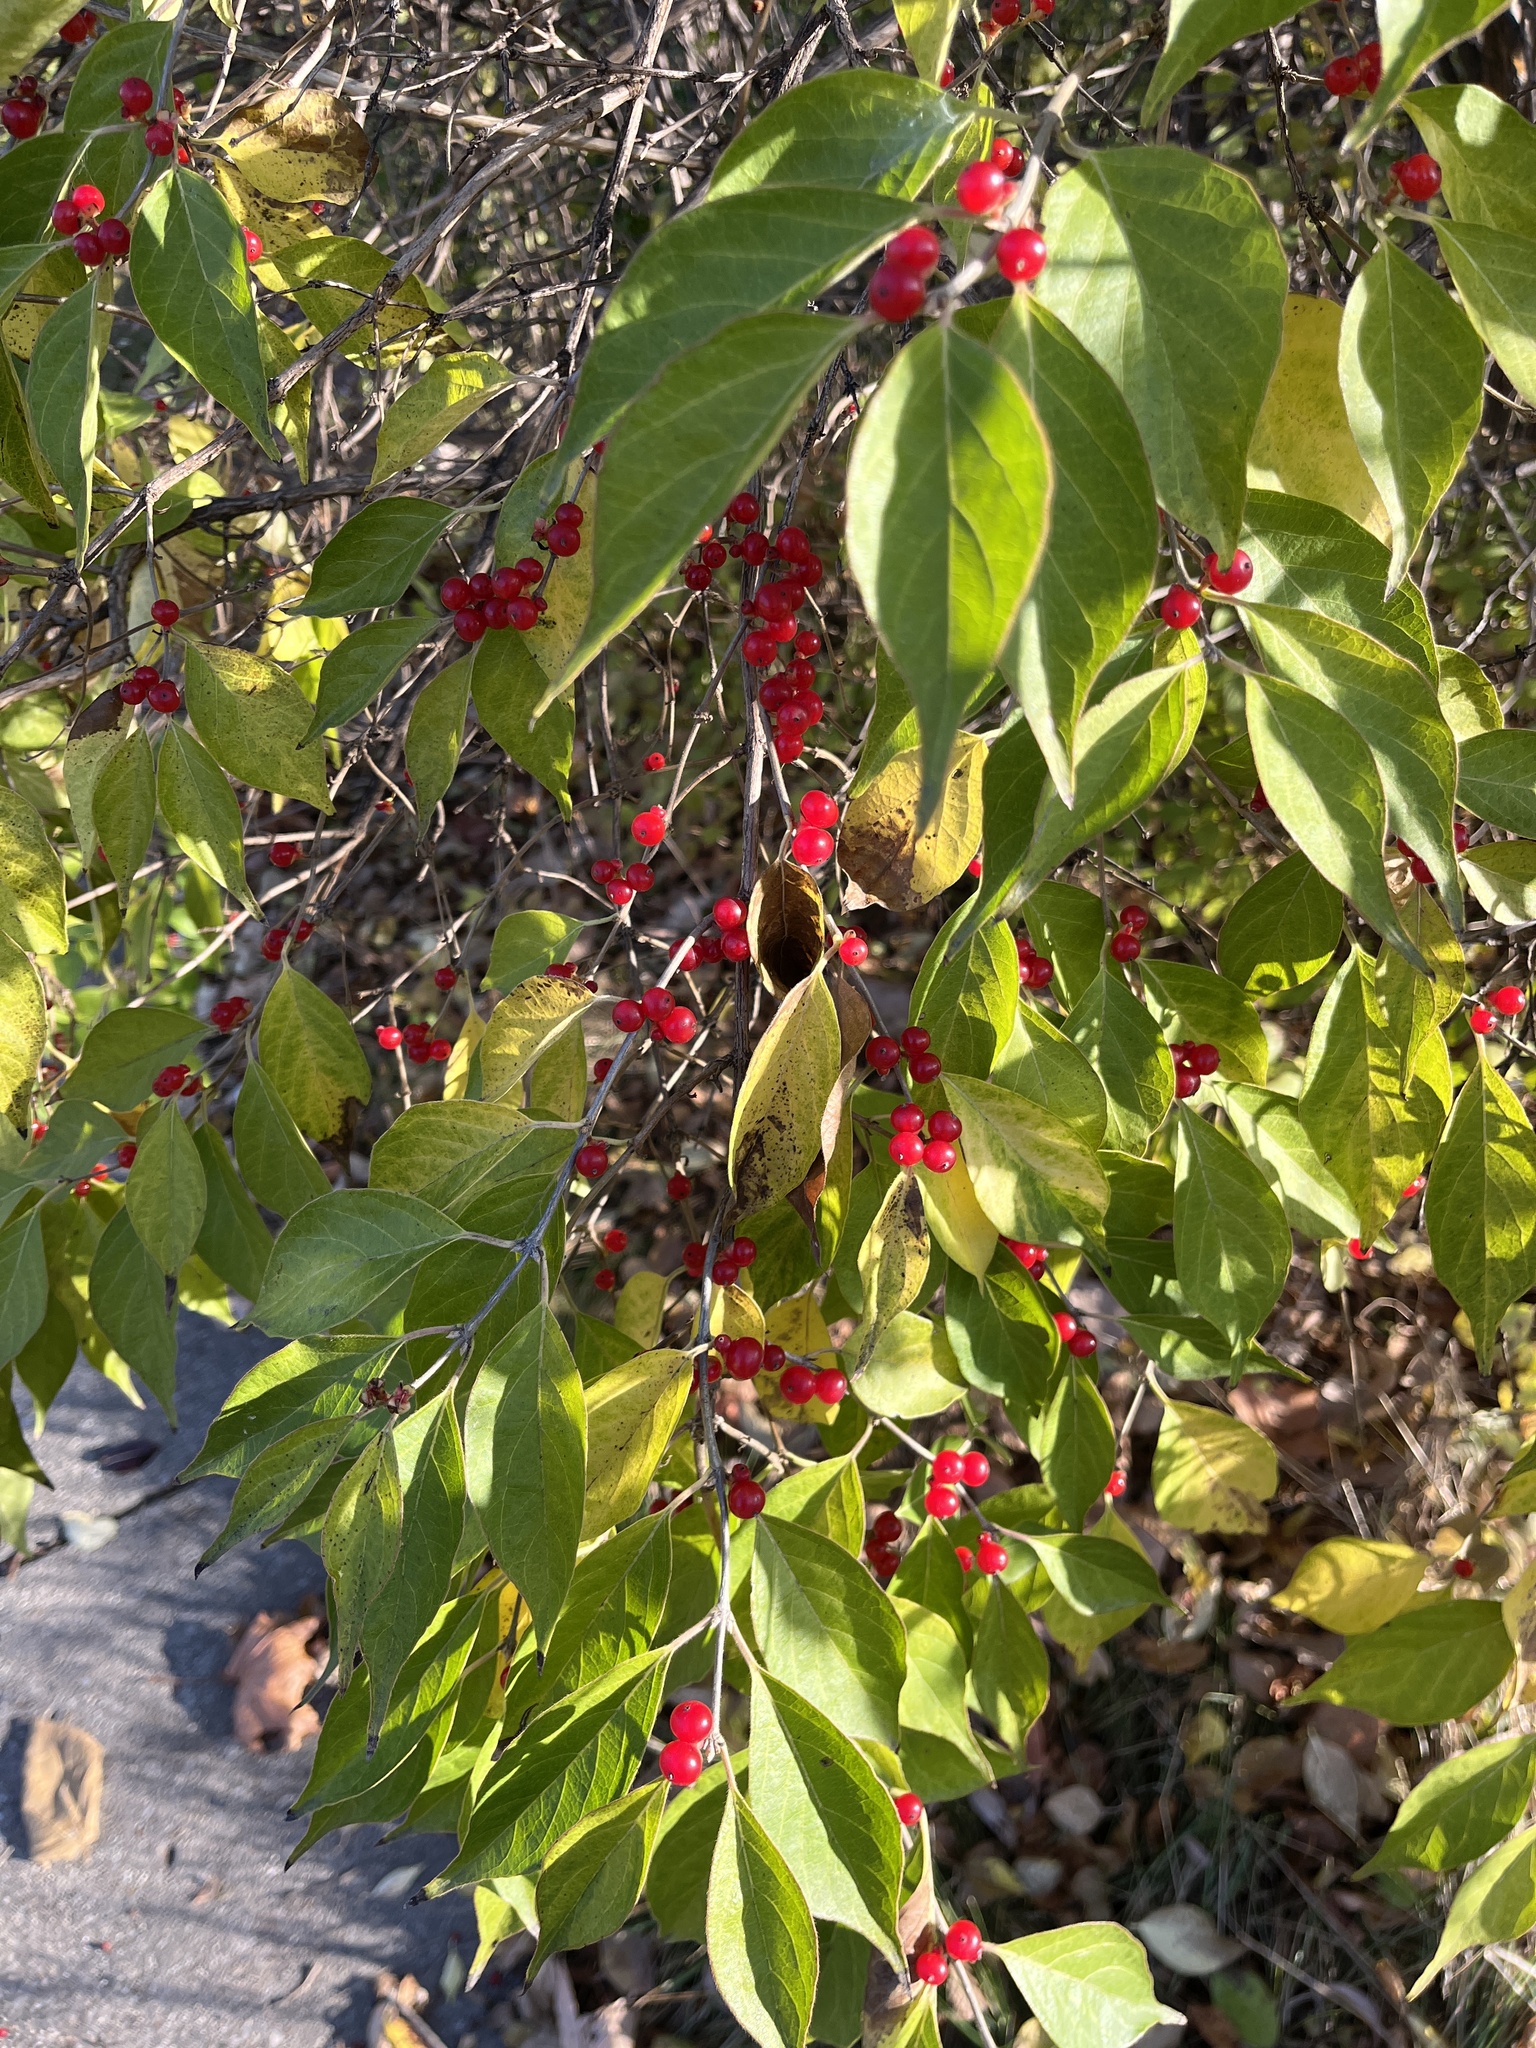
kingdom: Plantae
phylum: Tracheophyta
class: Magnoliopsida
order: Dipsacales
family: Caprifoliaceae
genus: Lonicera
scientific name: Lonicera maackii
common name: Amur honeysuckle
